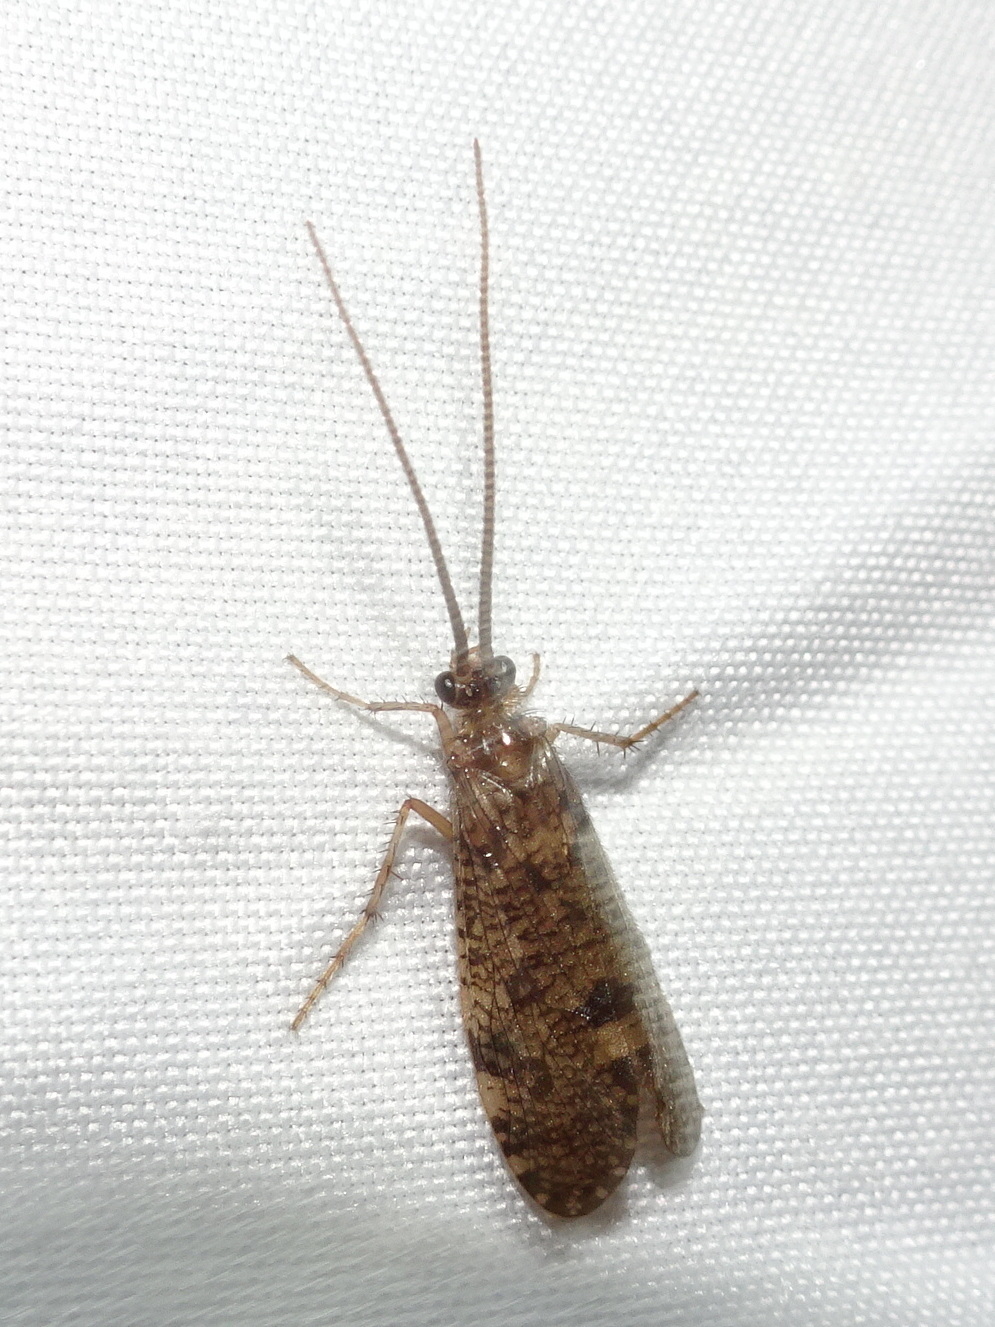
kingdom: Animalia
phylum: Arthropoda
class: Insecta
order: Trichoptera
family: Phryganeidae
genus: Banksiola
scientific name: Banksiola crotchi
